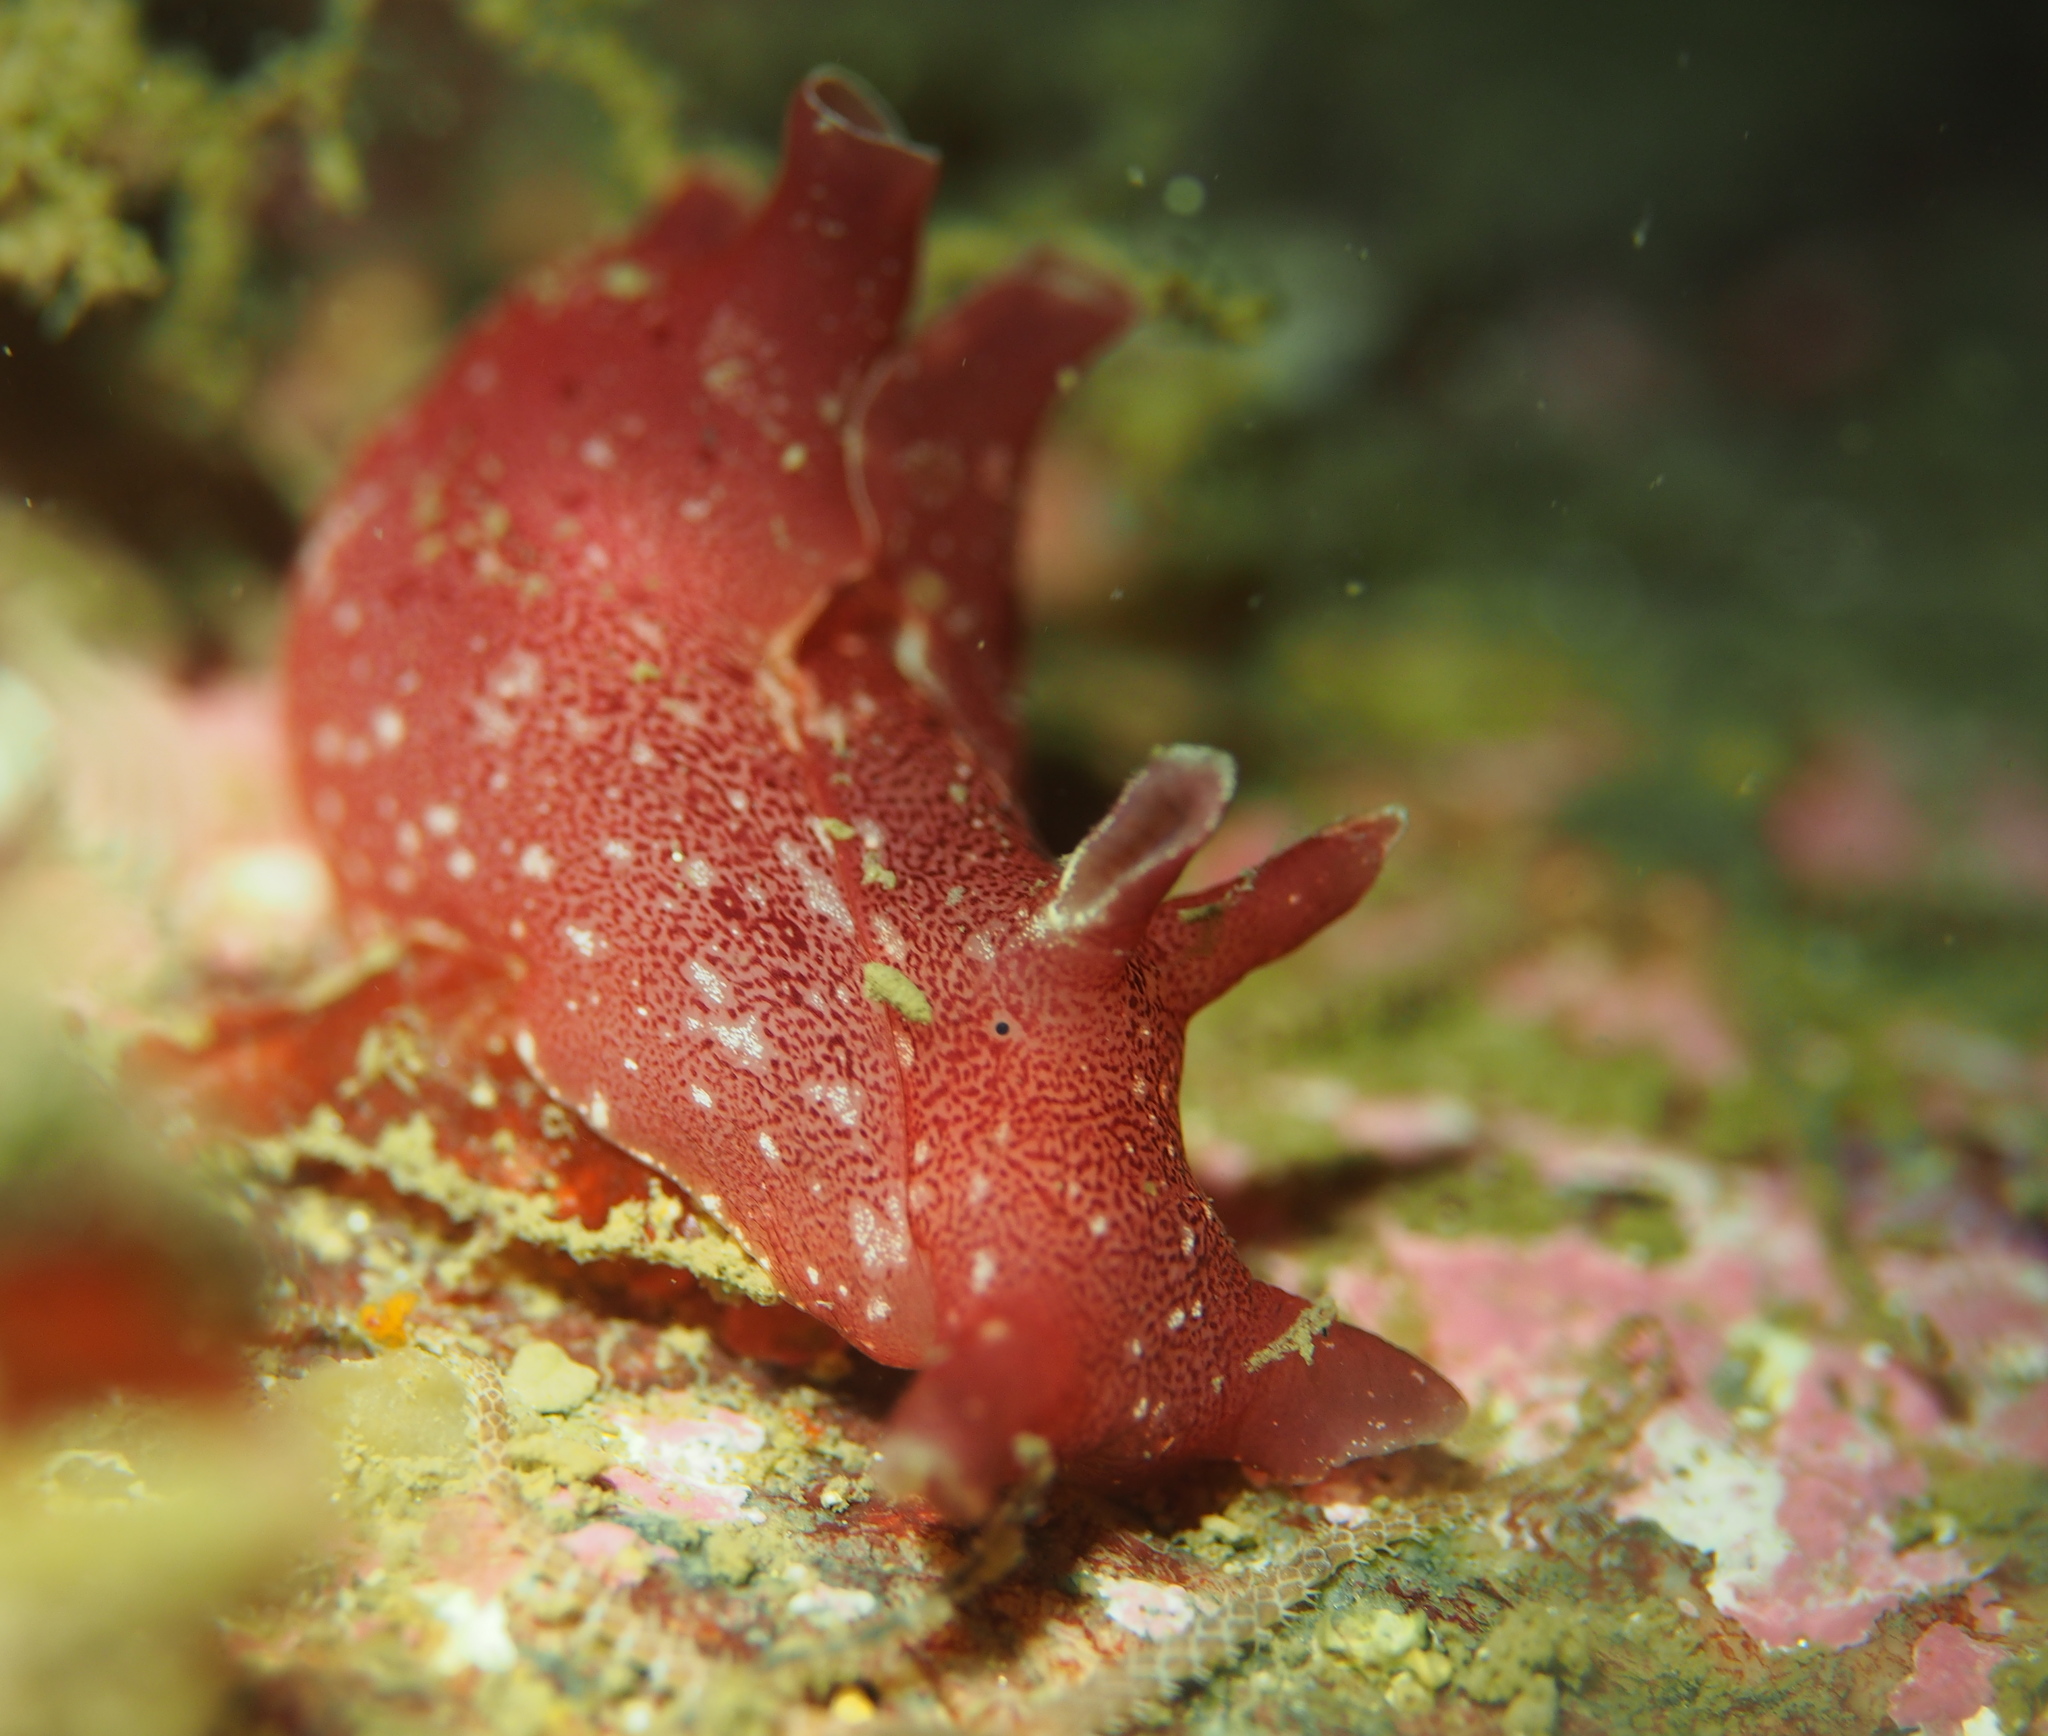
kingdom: Animalia
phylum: Mollusca
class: Gastropoda
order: Aplysiida
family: Aplysiidae
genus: Aplysia
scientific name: Aplysia punctata
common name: Common sea hare
